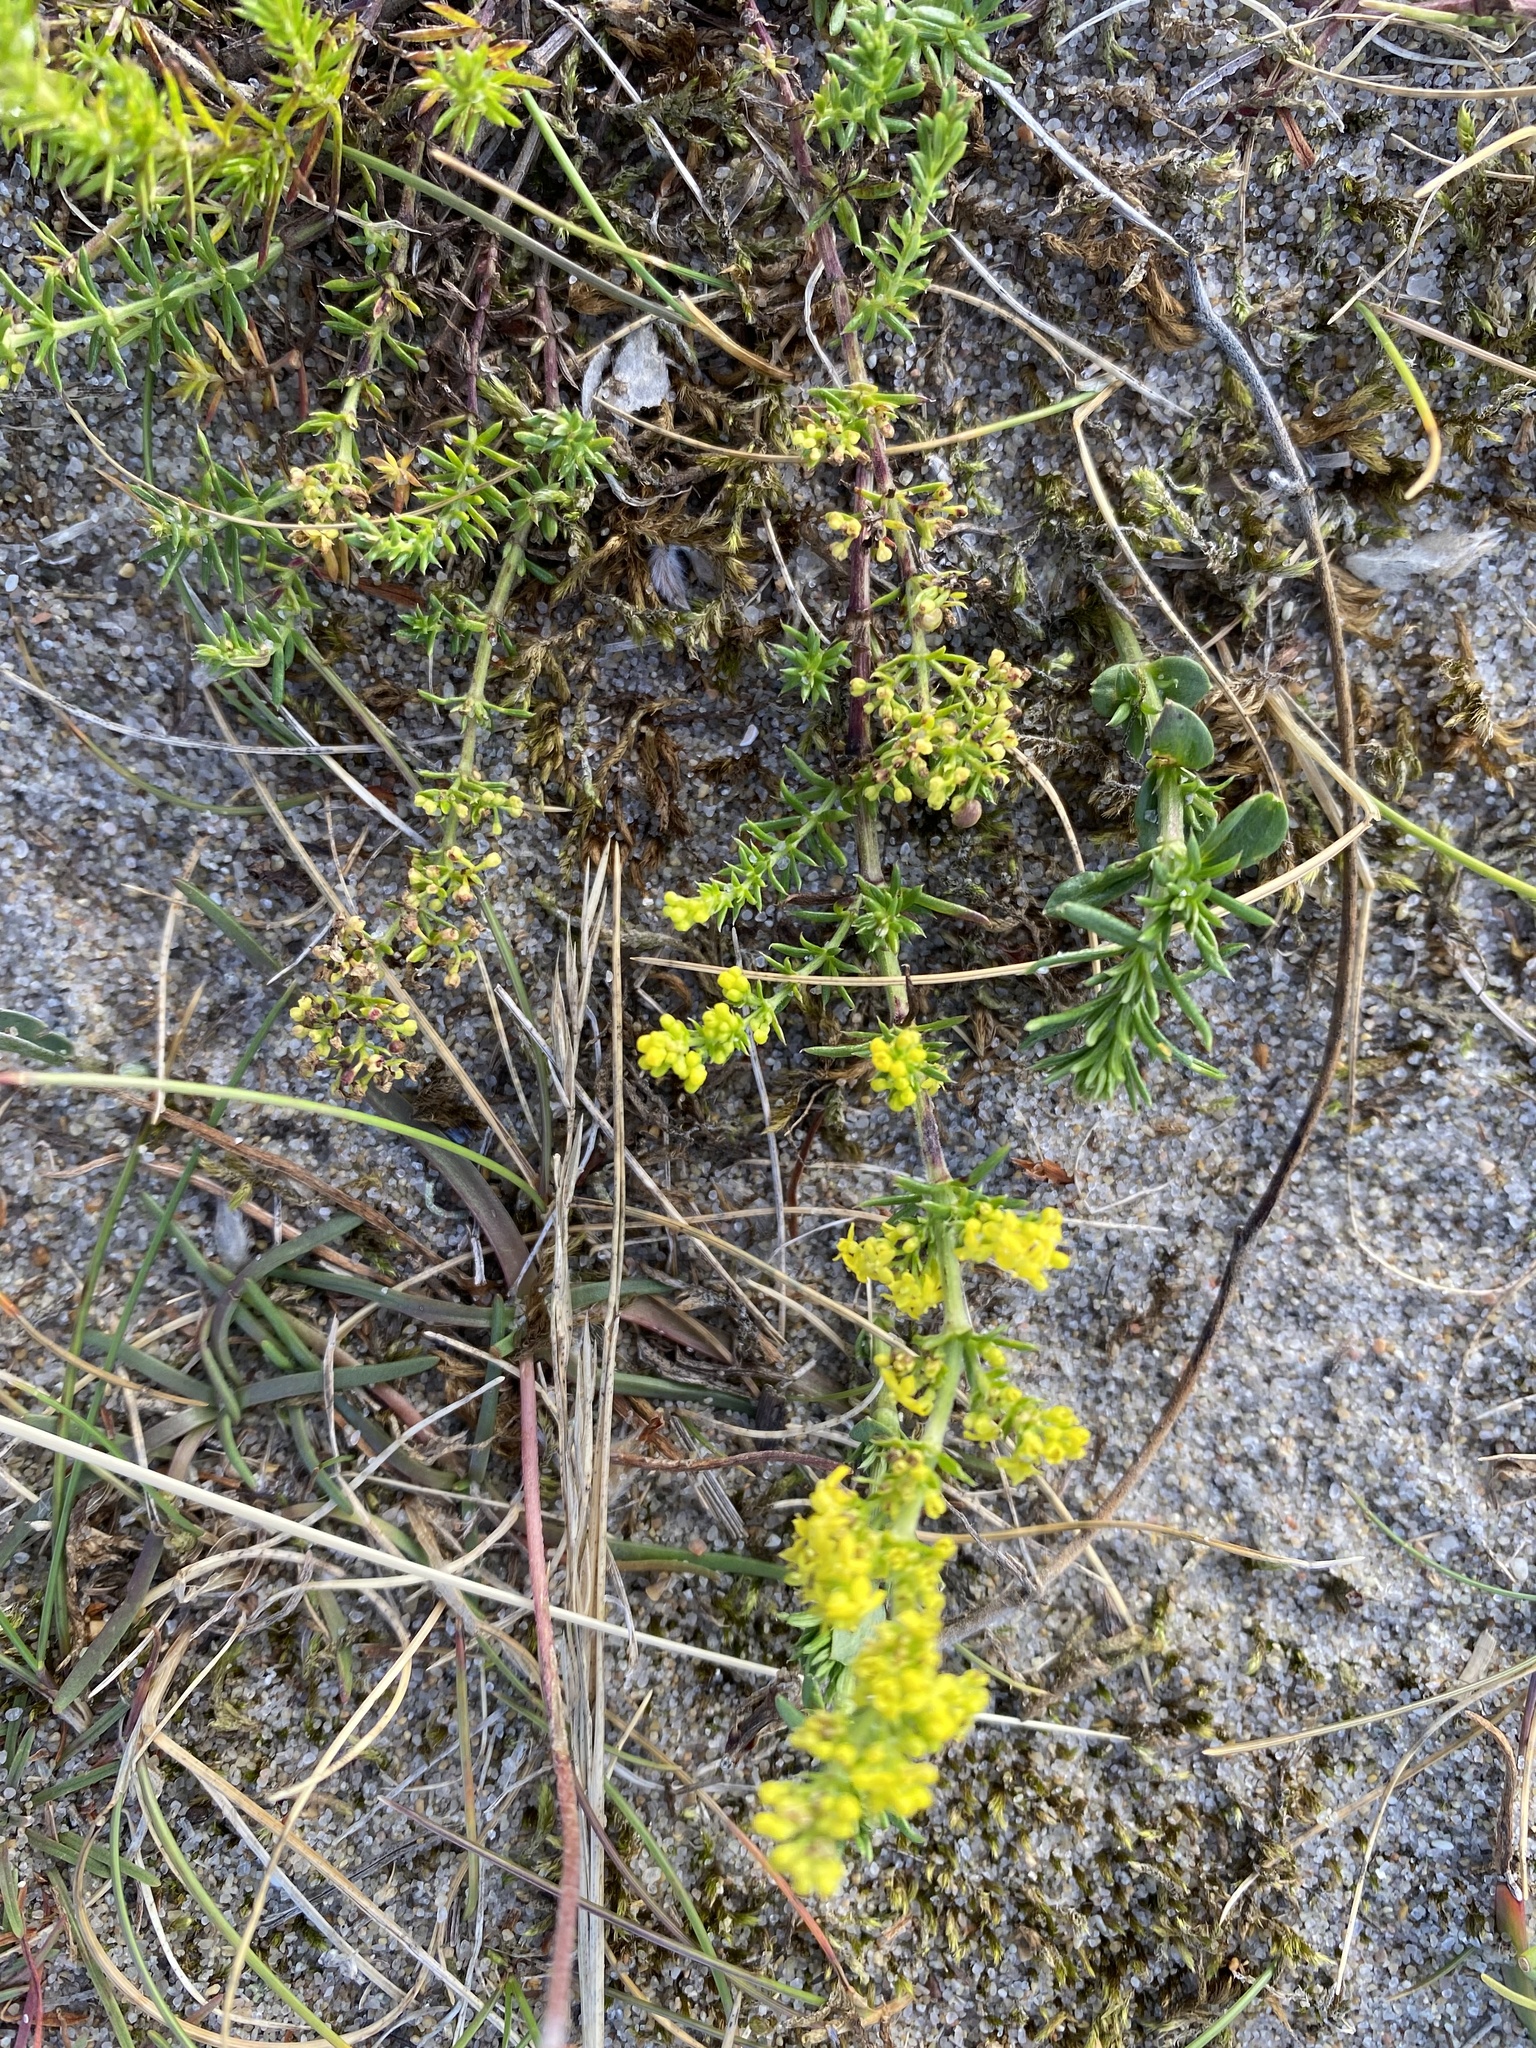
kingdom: Plantae
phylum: Tracheophyta
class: Magnoliopsida
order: Gentianales
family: Rubiaceae
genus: Galium
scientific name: Galium verum
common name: Lady's bedstraw
